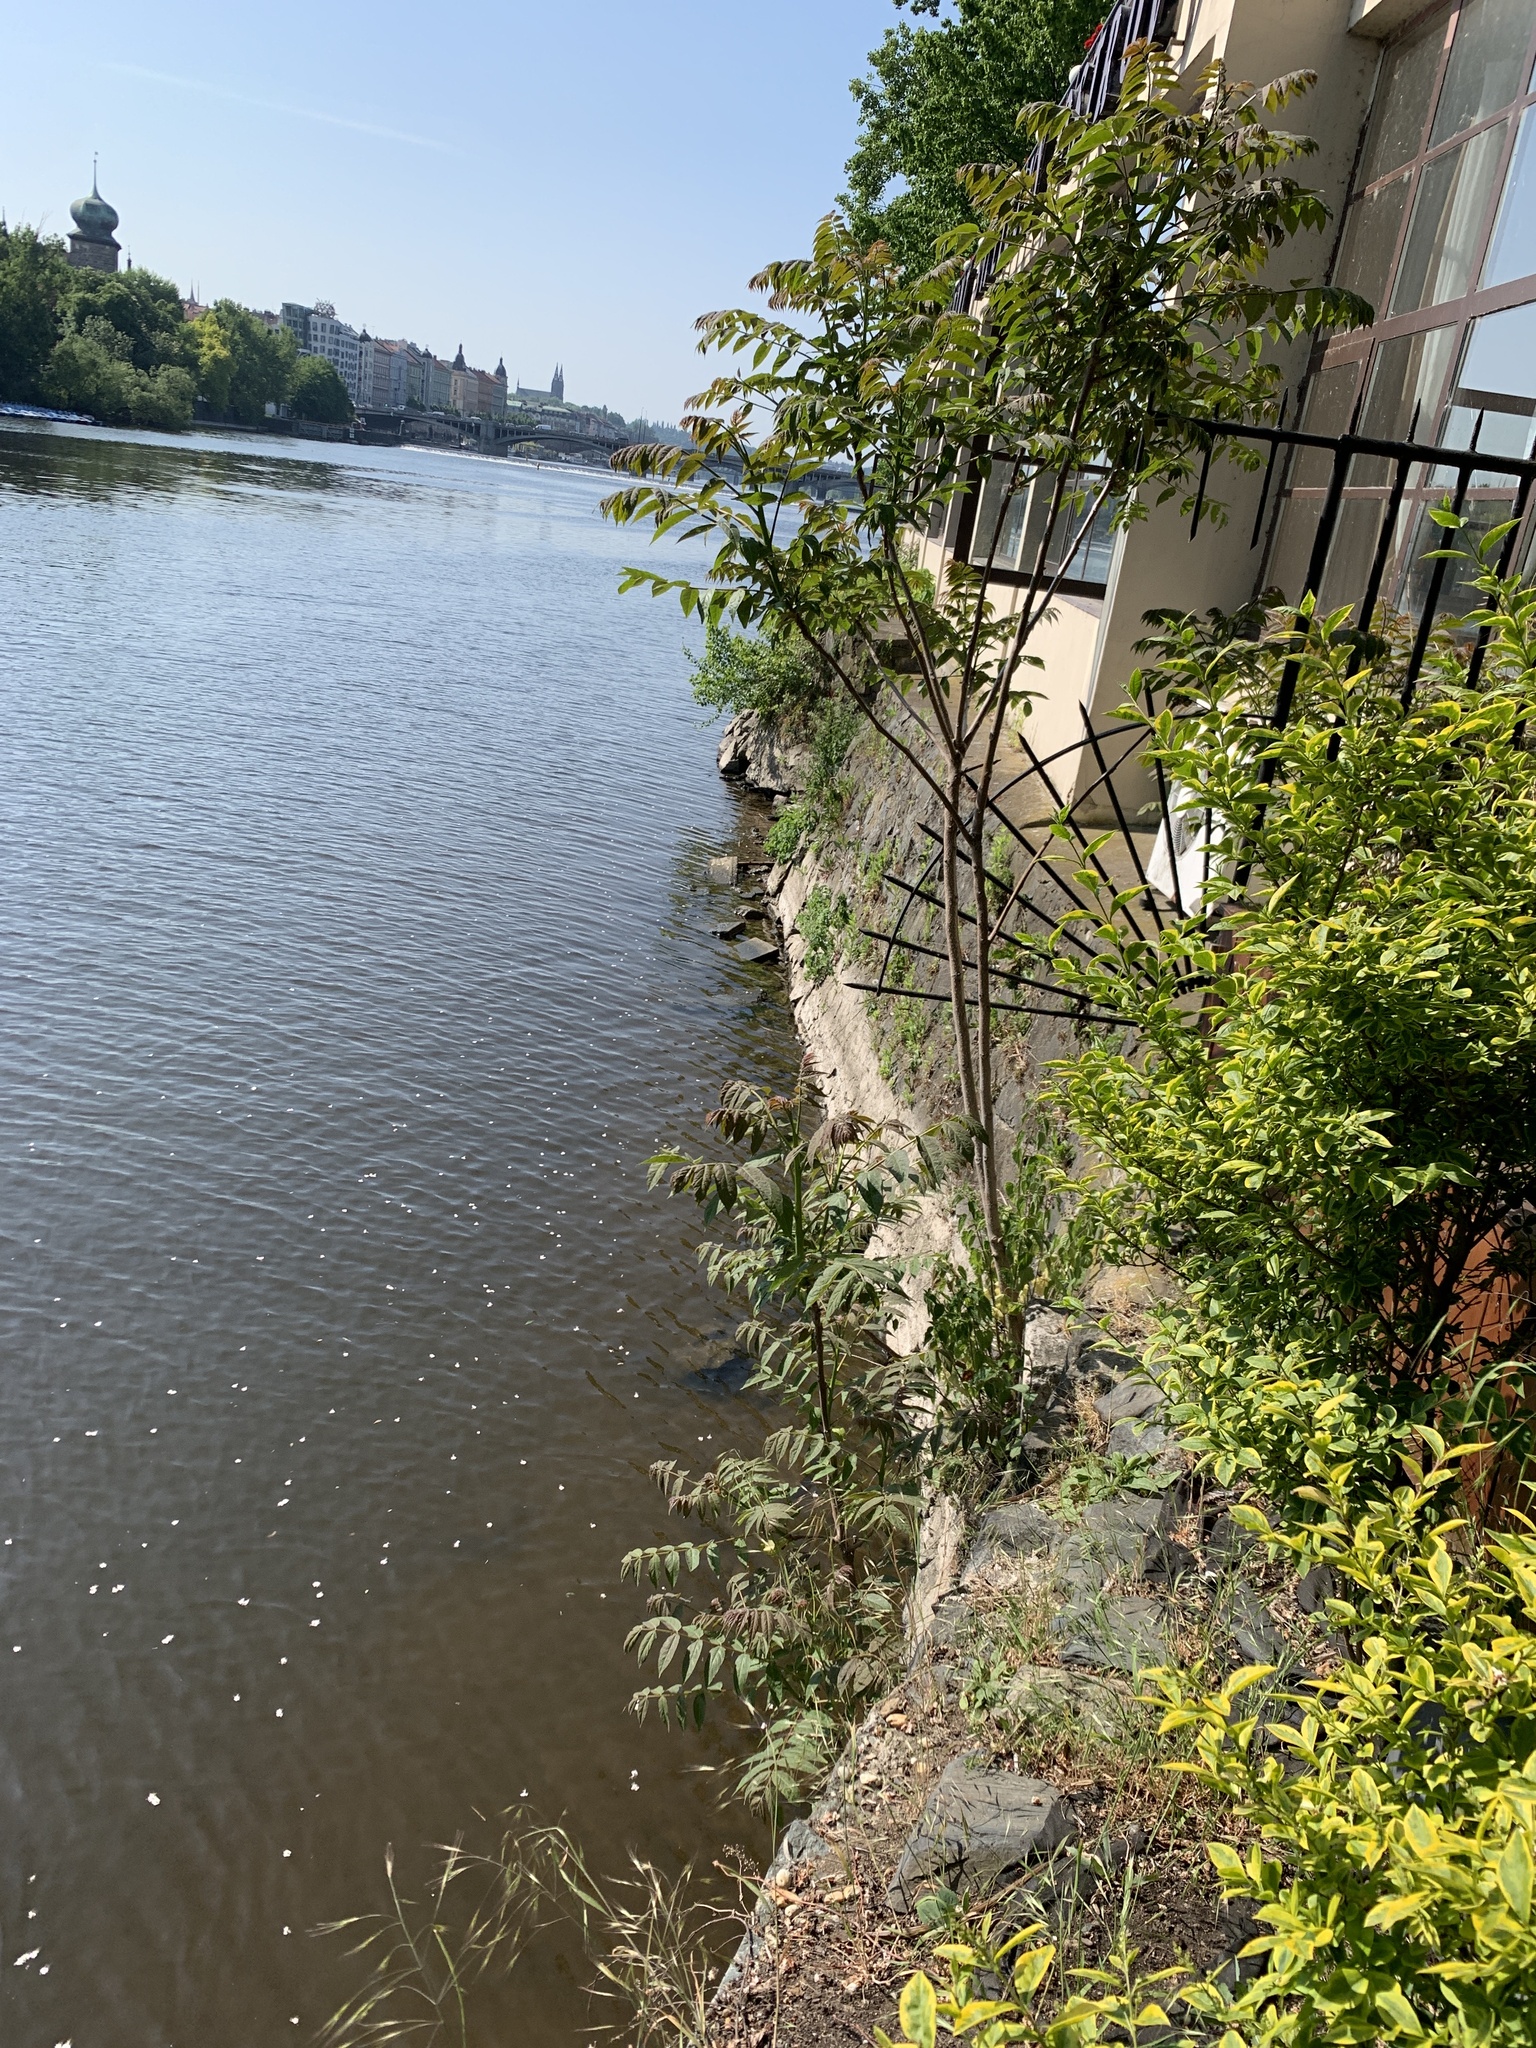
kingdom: Plantae
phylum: Tracheophyta
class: Magnoliopsida
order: Sapindales
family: Simaroubaceae
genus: Ailanthus
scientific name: Ailanthus altissima
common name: Tree-of-heaven
